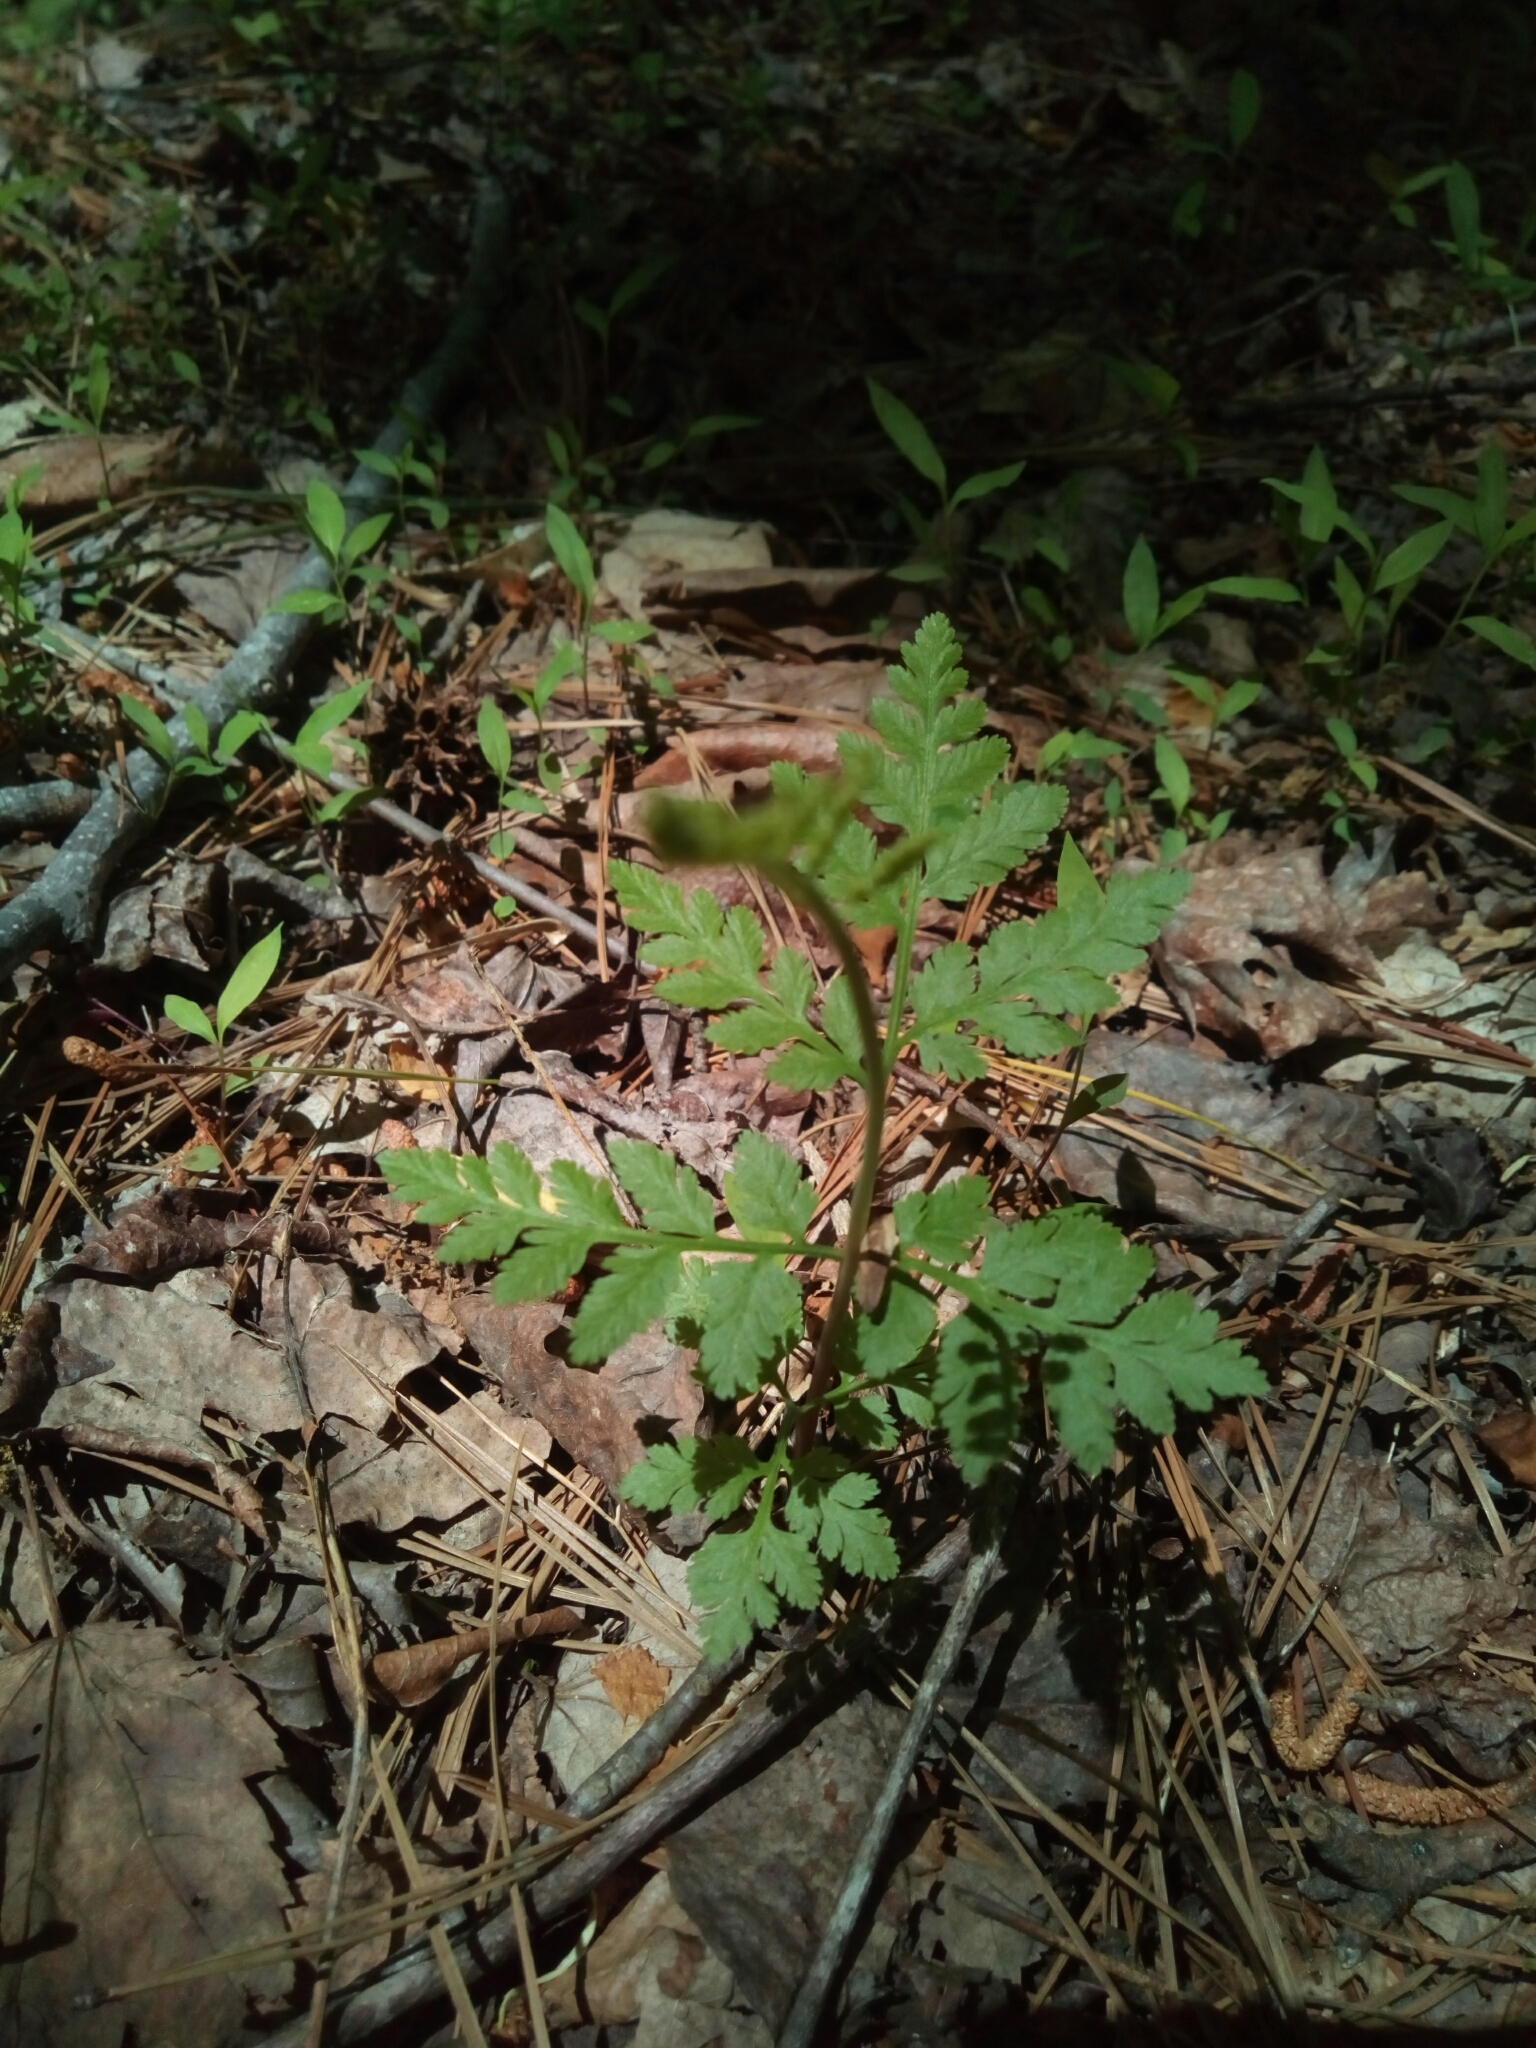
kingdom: Plantae
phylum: Tracheophyta
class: Polypodiopsida
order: Ophioglossales
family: Ophioglossaceae
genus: Botrypus
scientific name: Botrypus virginianus
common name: Common grapefern
